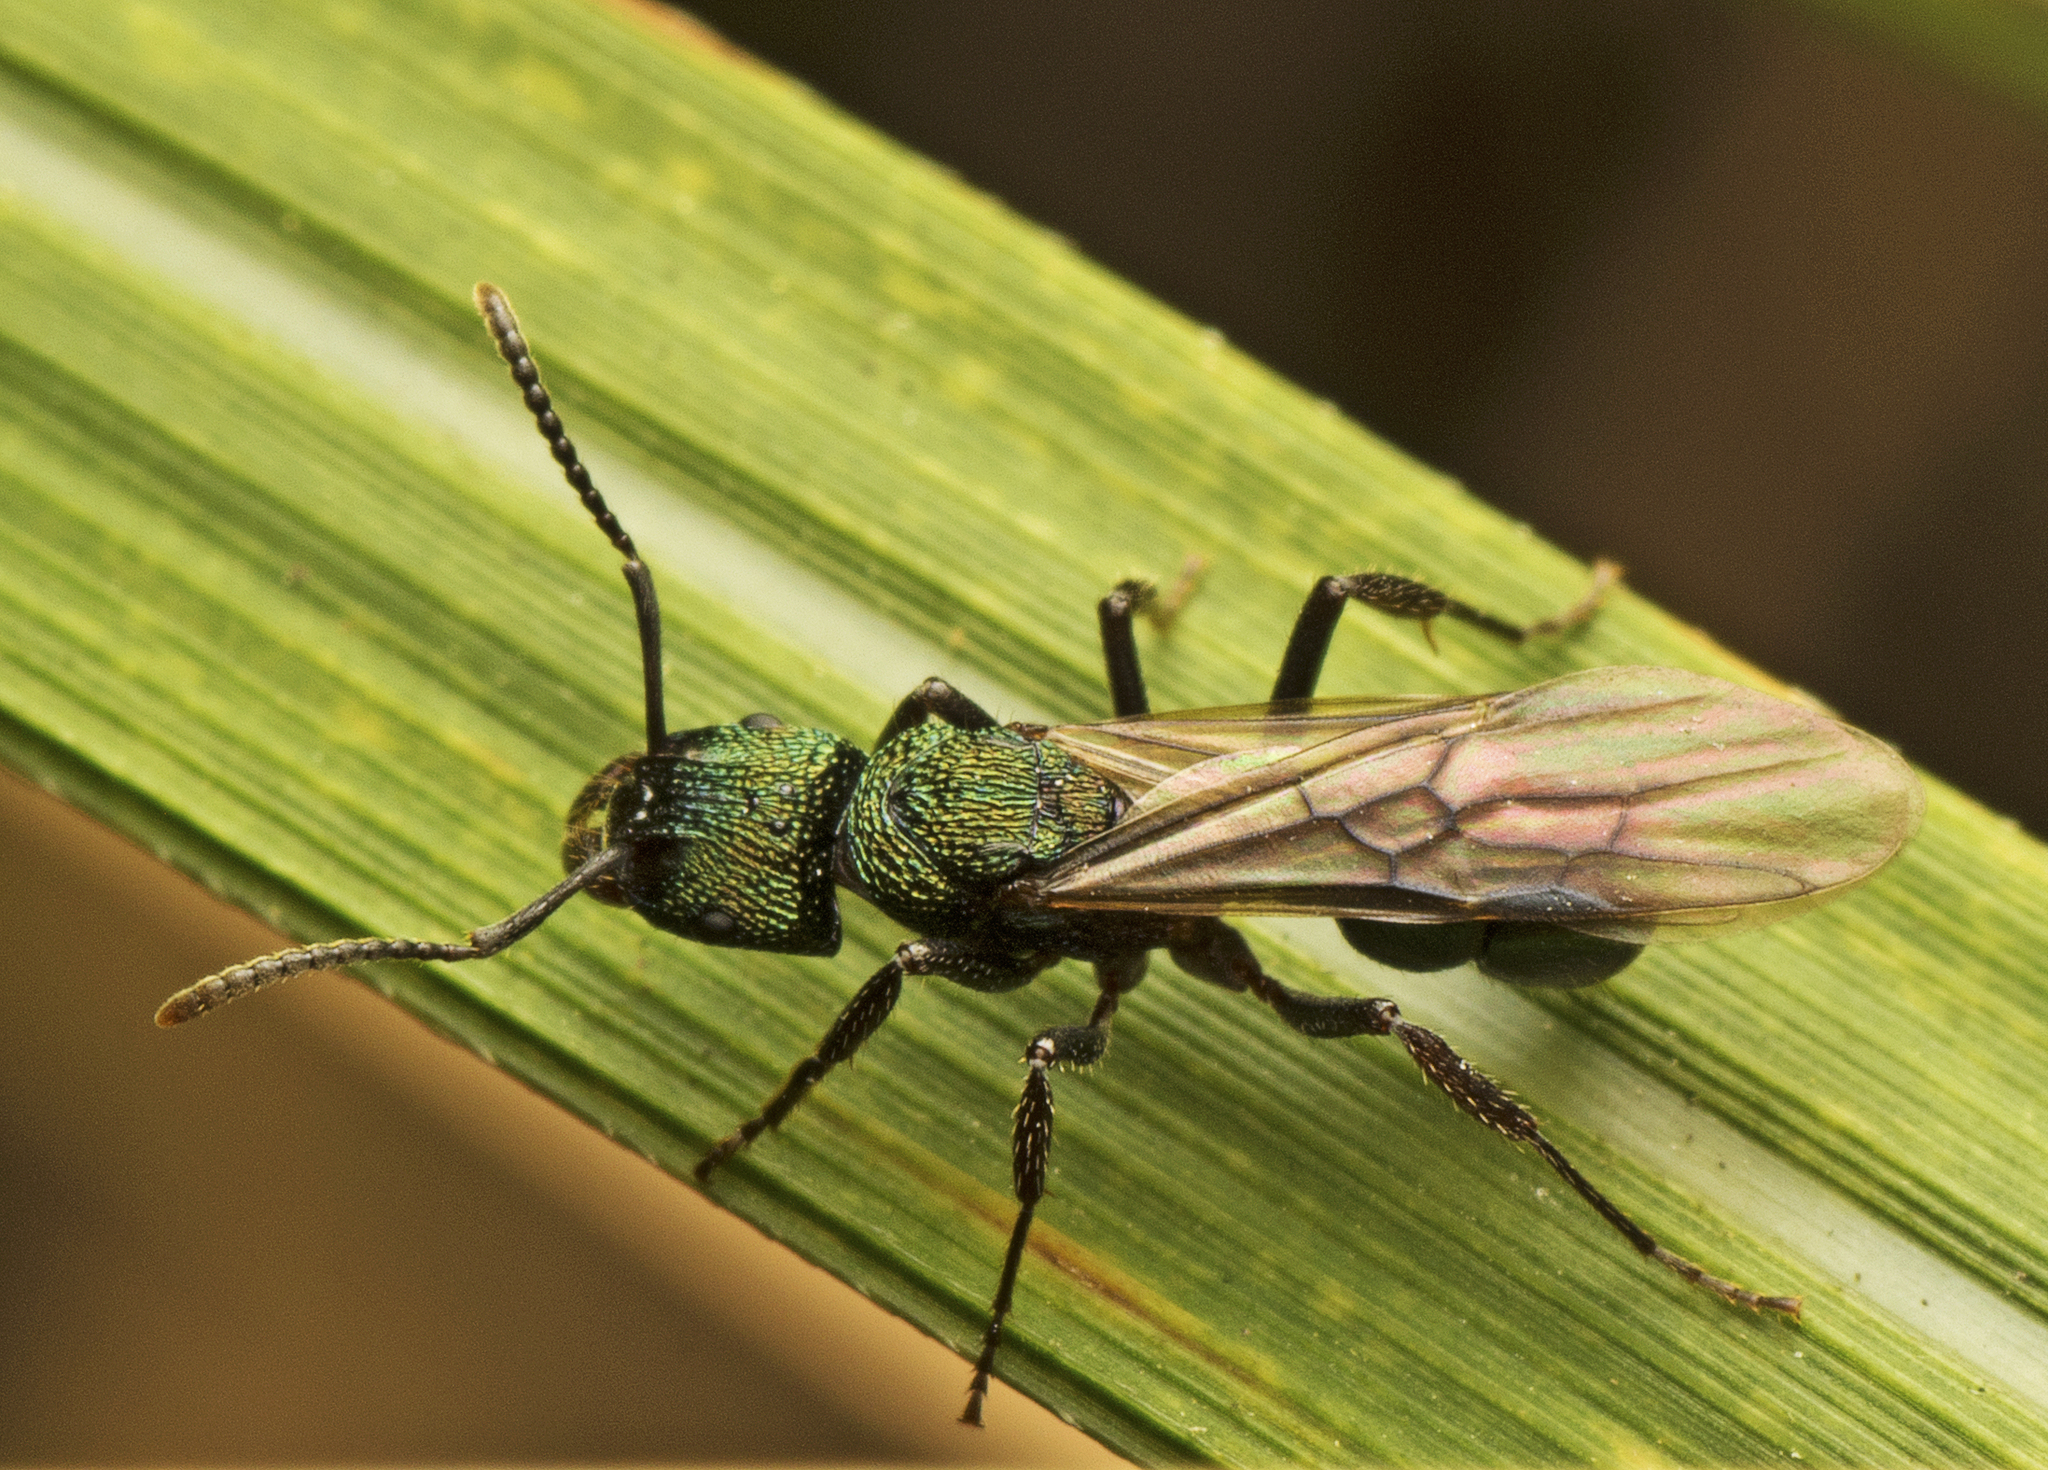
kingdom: Animalia
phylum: Arthropoda
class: Insecta
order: Hymenoptera
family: Formicidae
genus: Rhytidoponera
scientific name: Rhytidoponera metallica
